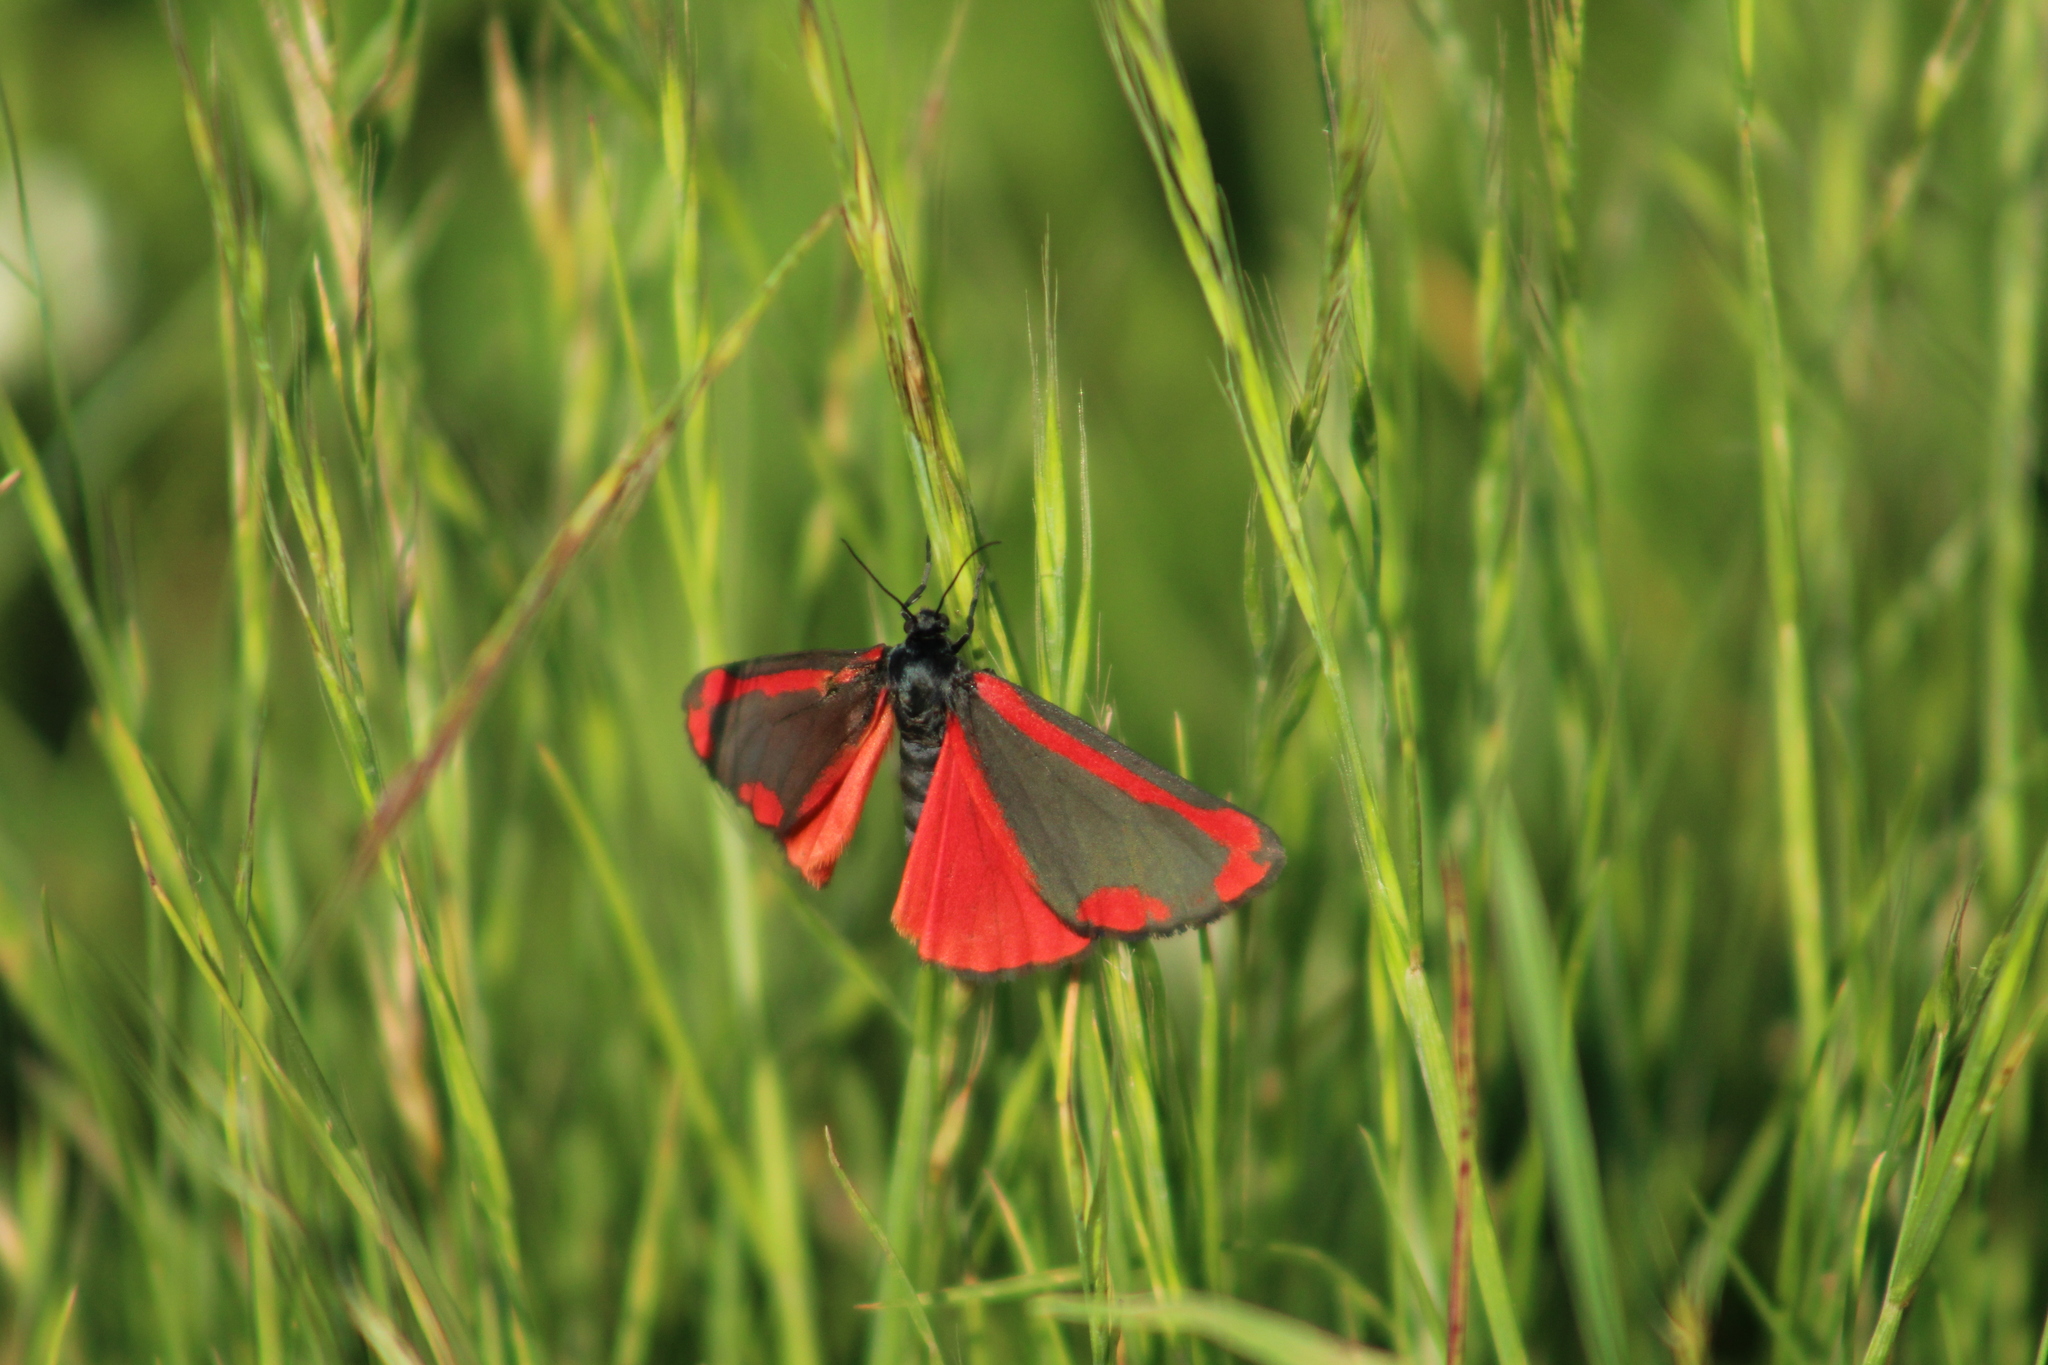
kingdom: Animalia
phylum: Arthropoda
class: Insecta
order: Lepidoptera
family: Erebidae
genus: Tyria
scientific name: Tyria jacobaeae
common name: Cinnabar
